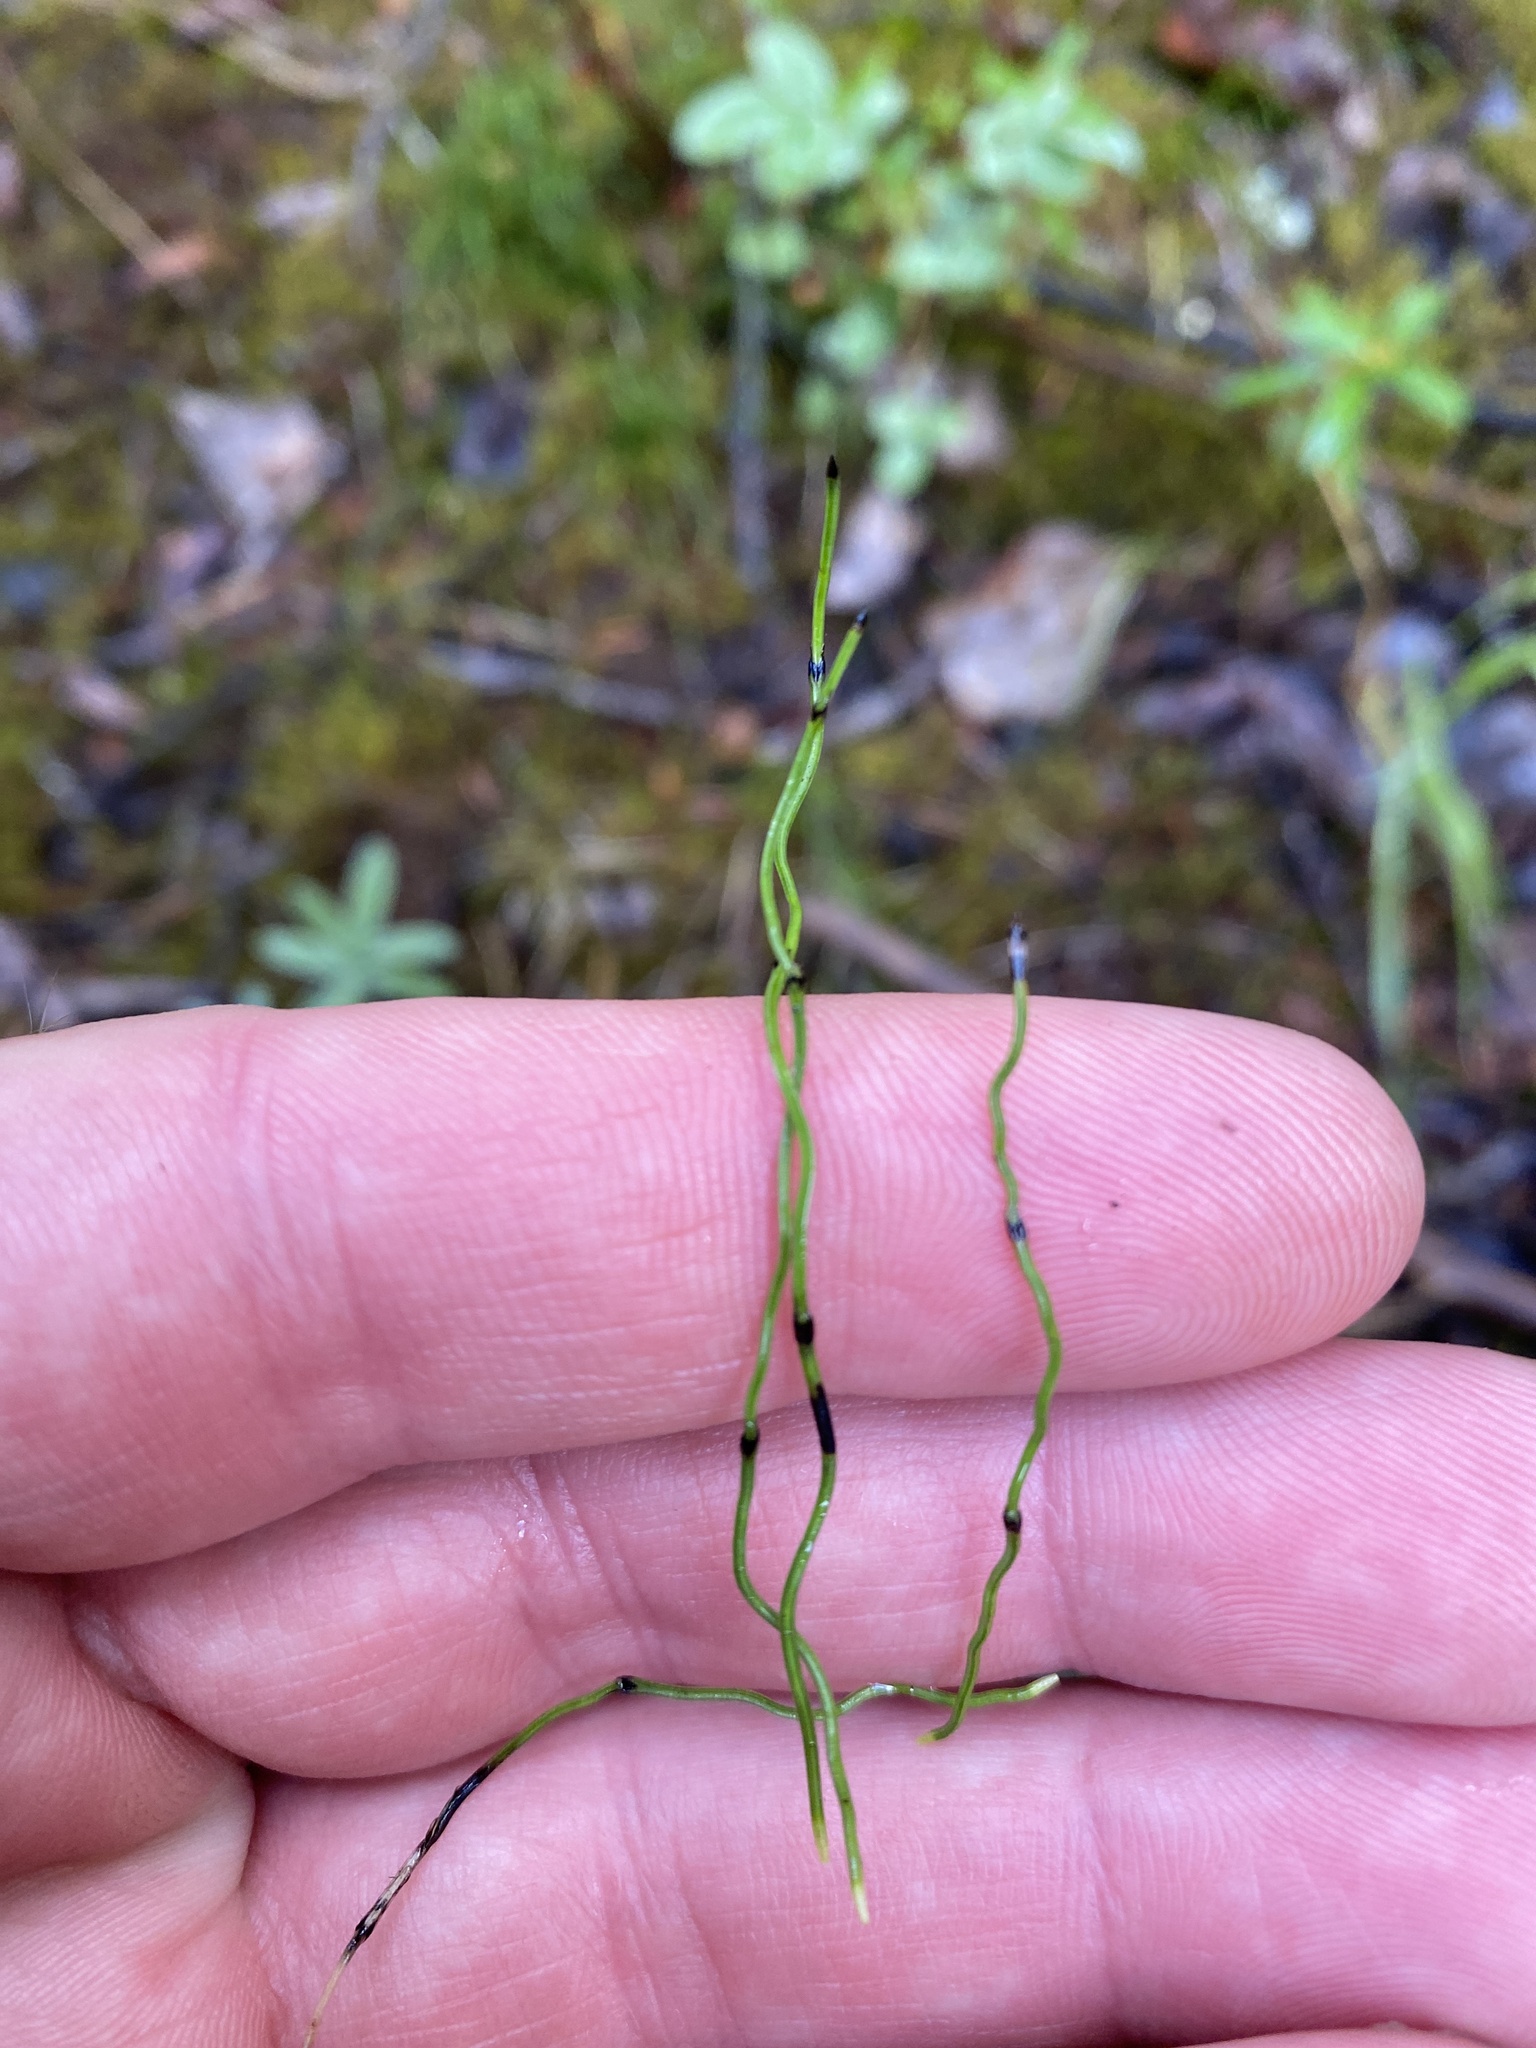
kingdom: Plantae
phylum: Tracheophyta
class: Polypodiopsida
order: Equisetales
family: Equisetaceae
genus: Equisetum
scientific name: Equisetum scirpoides
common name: Delicate horsetail
